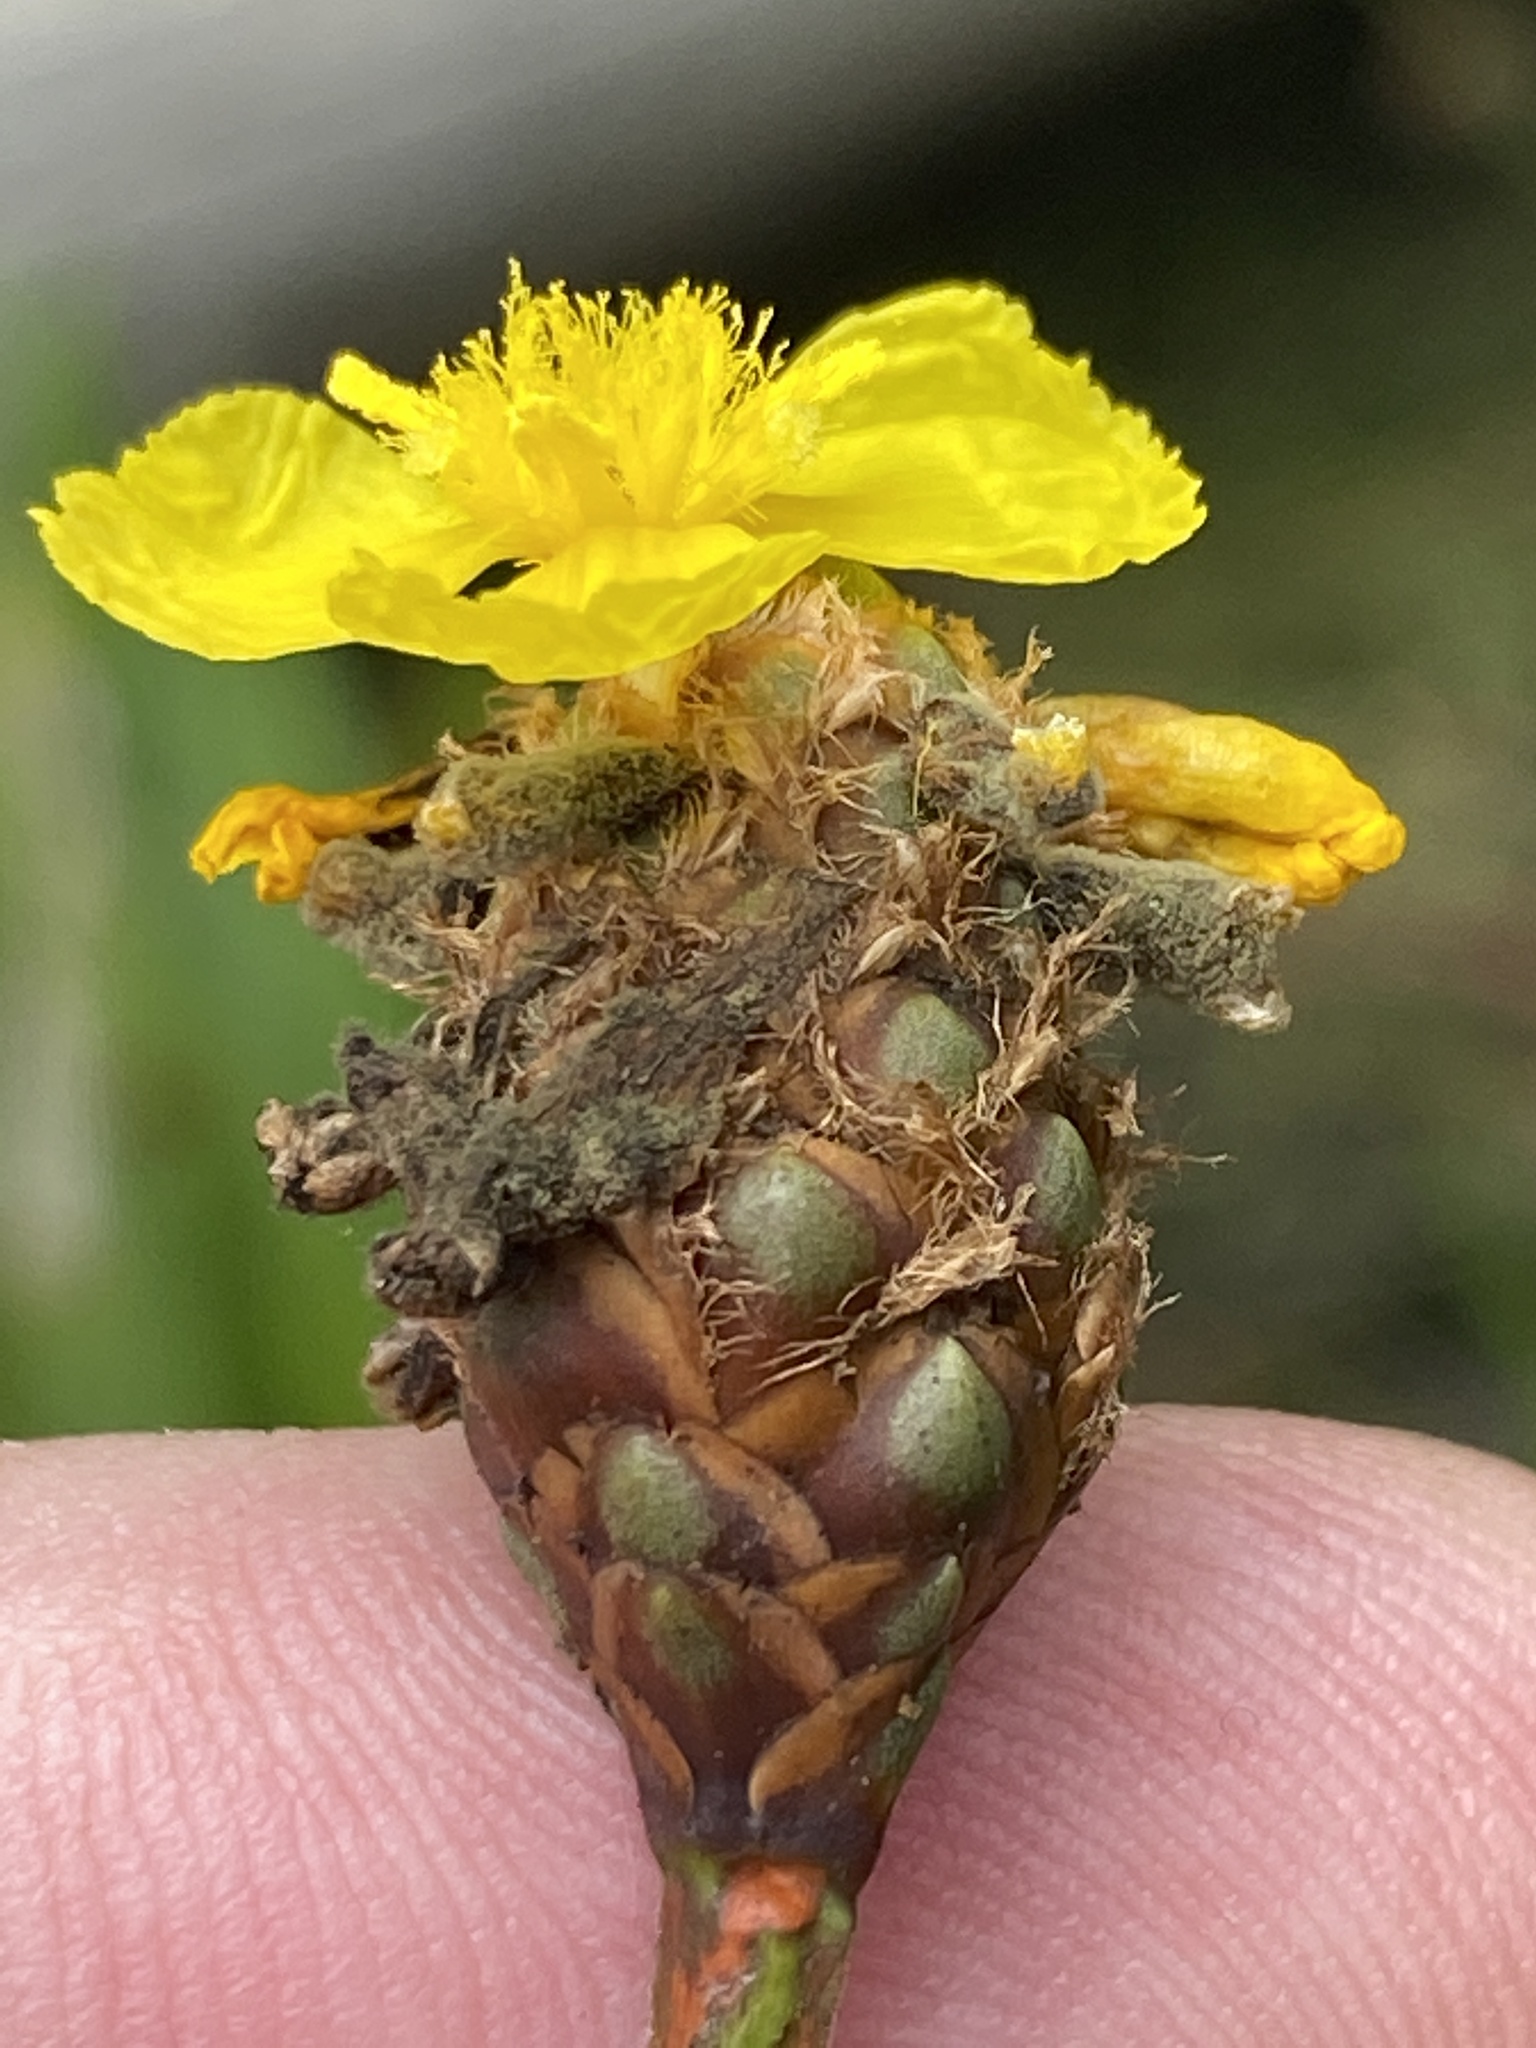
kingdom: Plantae
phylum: Tracheophyta
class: Liliopsida
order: Poales
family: Xyridaceae
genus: Xyris
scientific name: Xyris fimbriata
